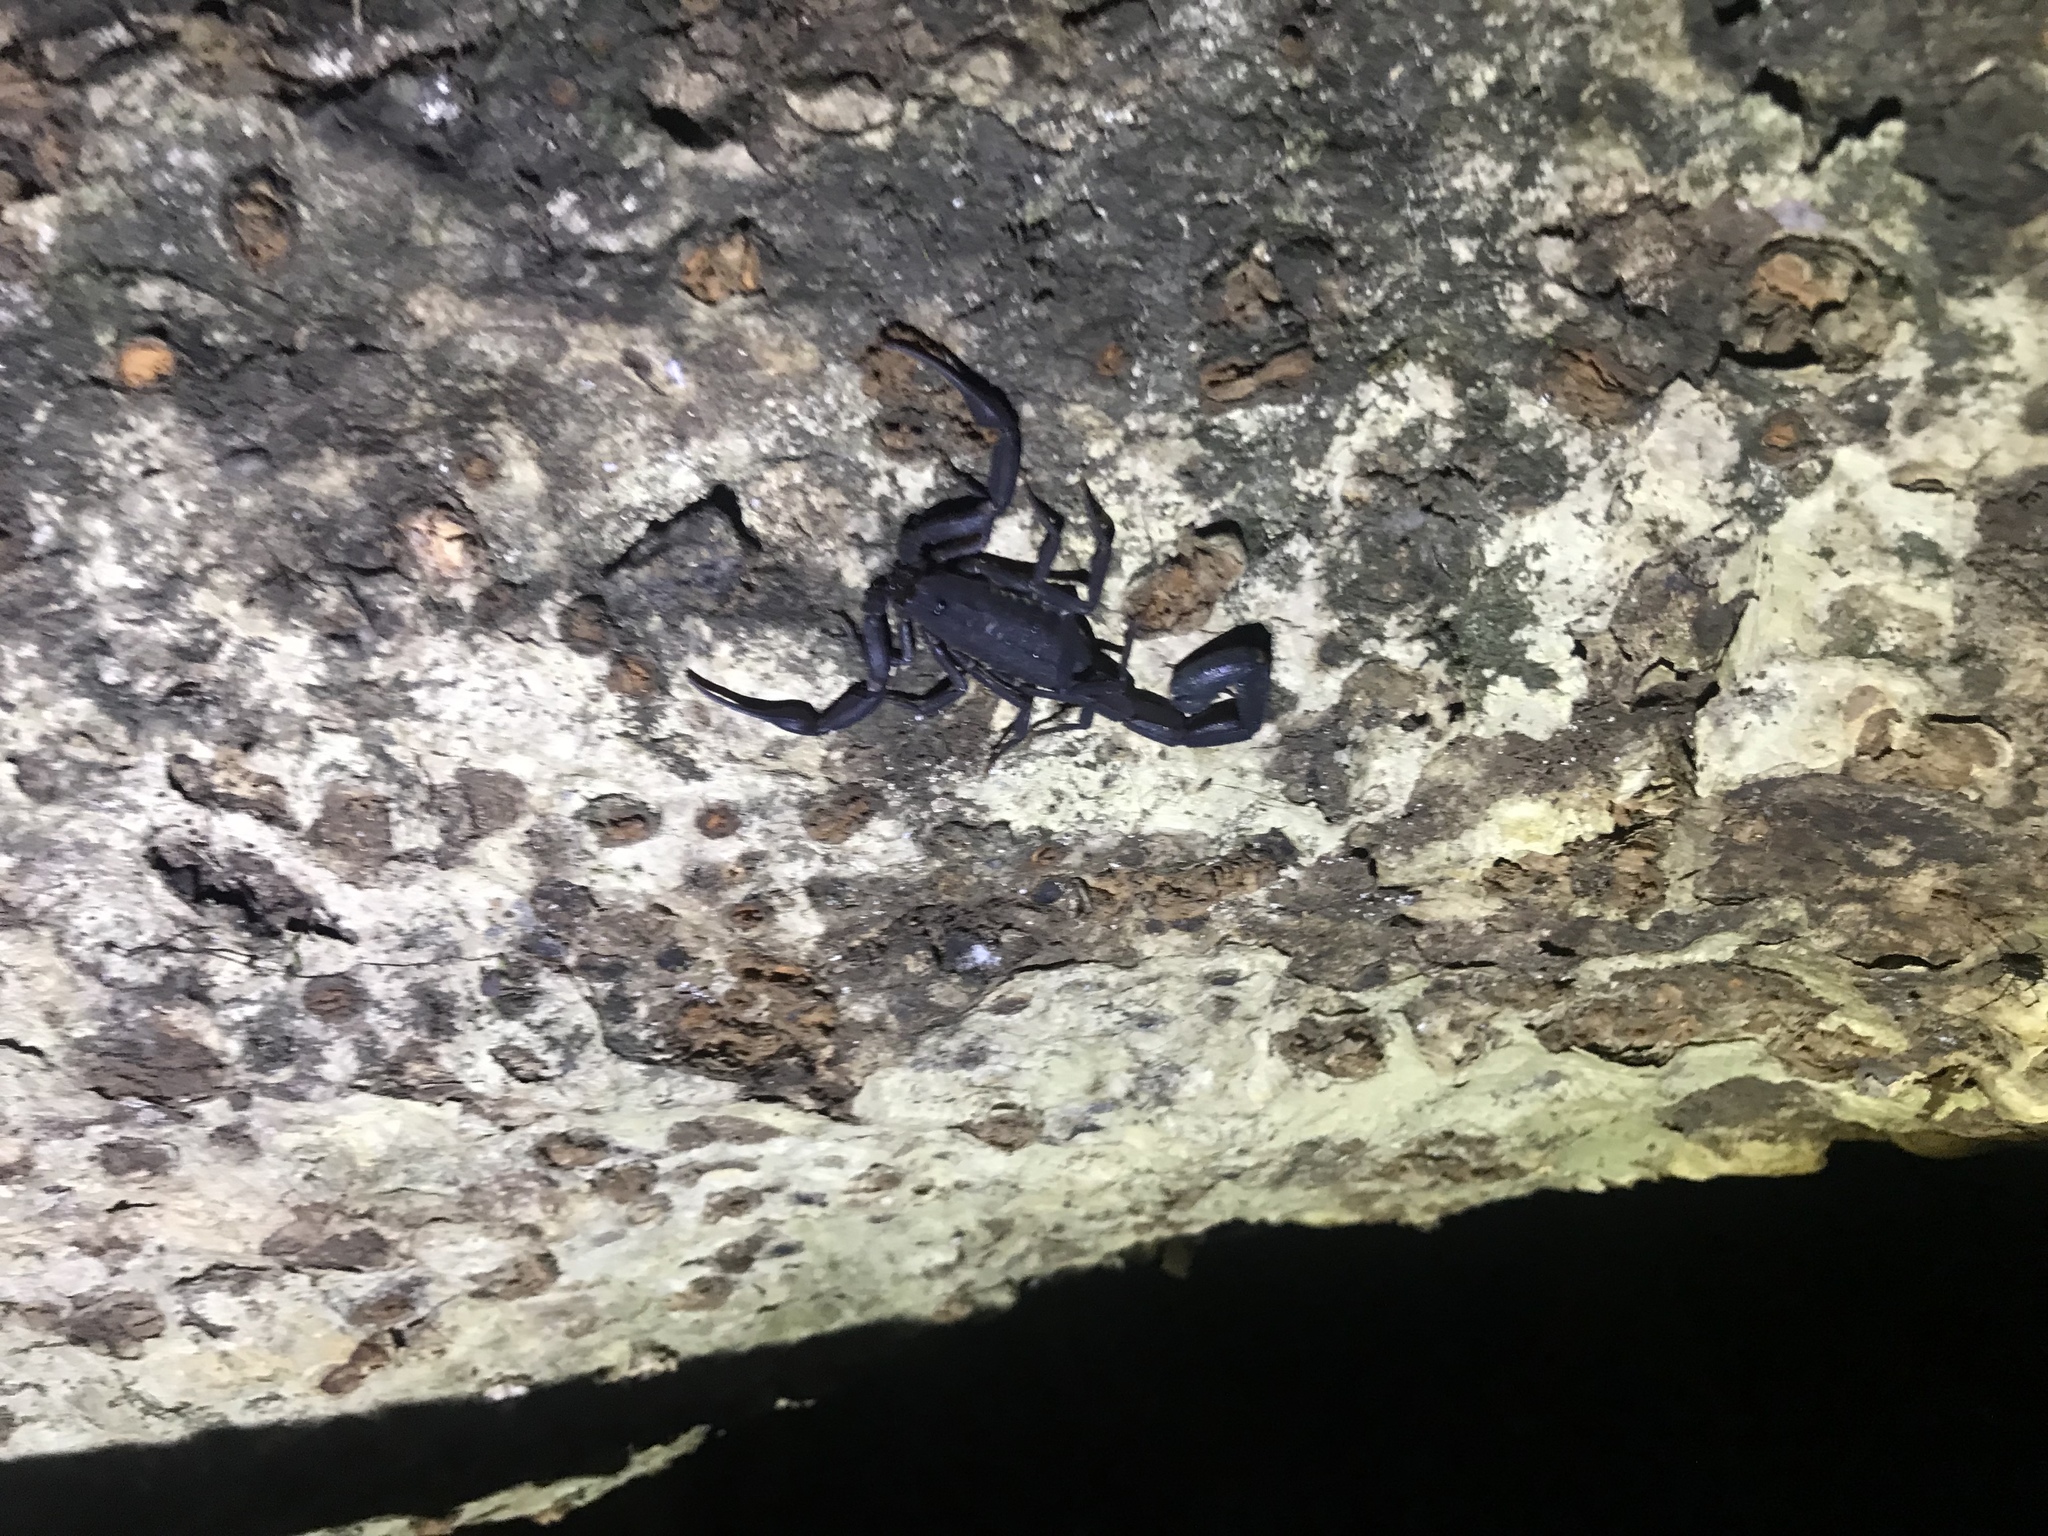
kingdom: Animalia
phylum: Arthropoda
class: Arachnida
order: Scorpiones
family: Buthidae
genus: Tityus
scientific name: Tityus pachyurus
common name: Scorpions
